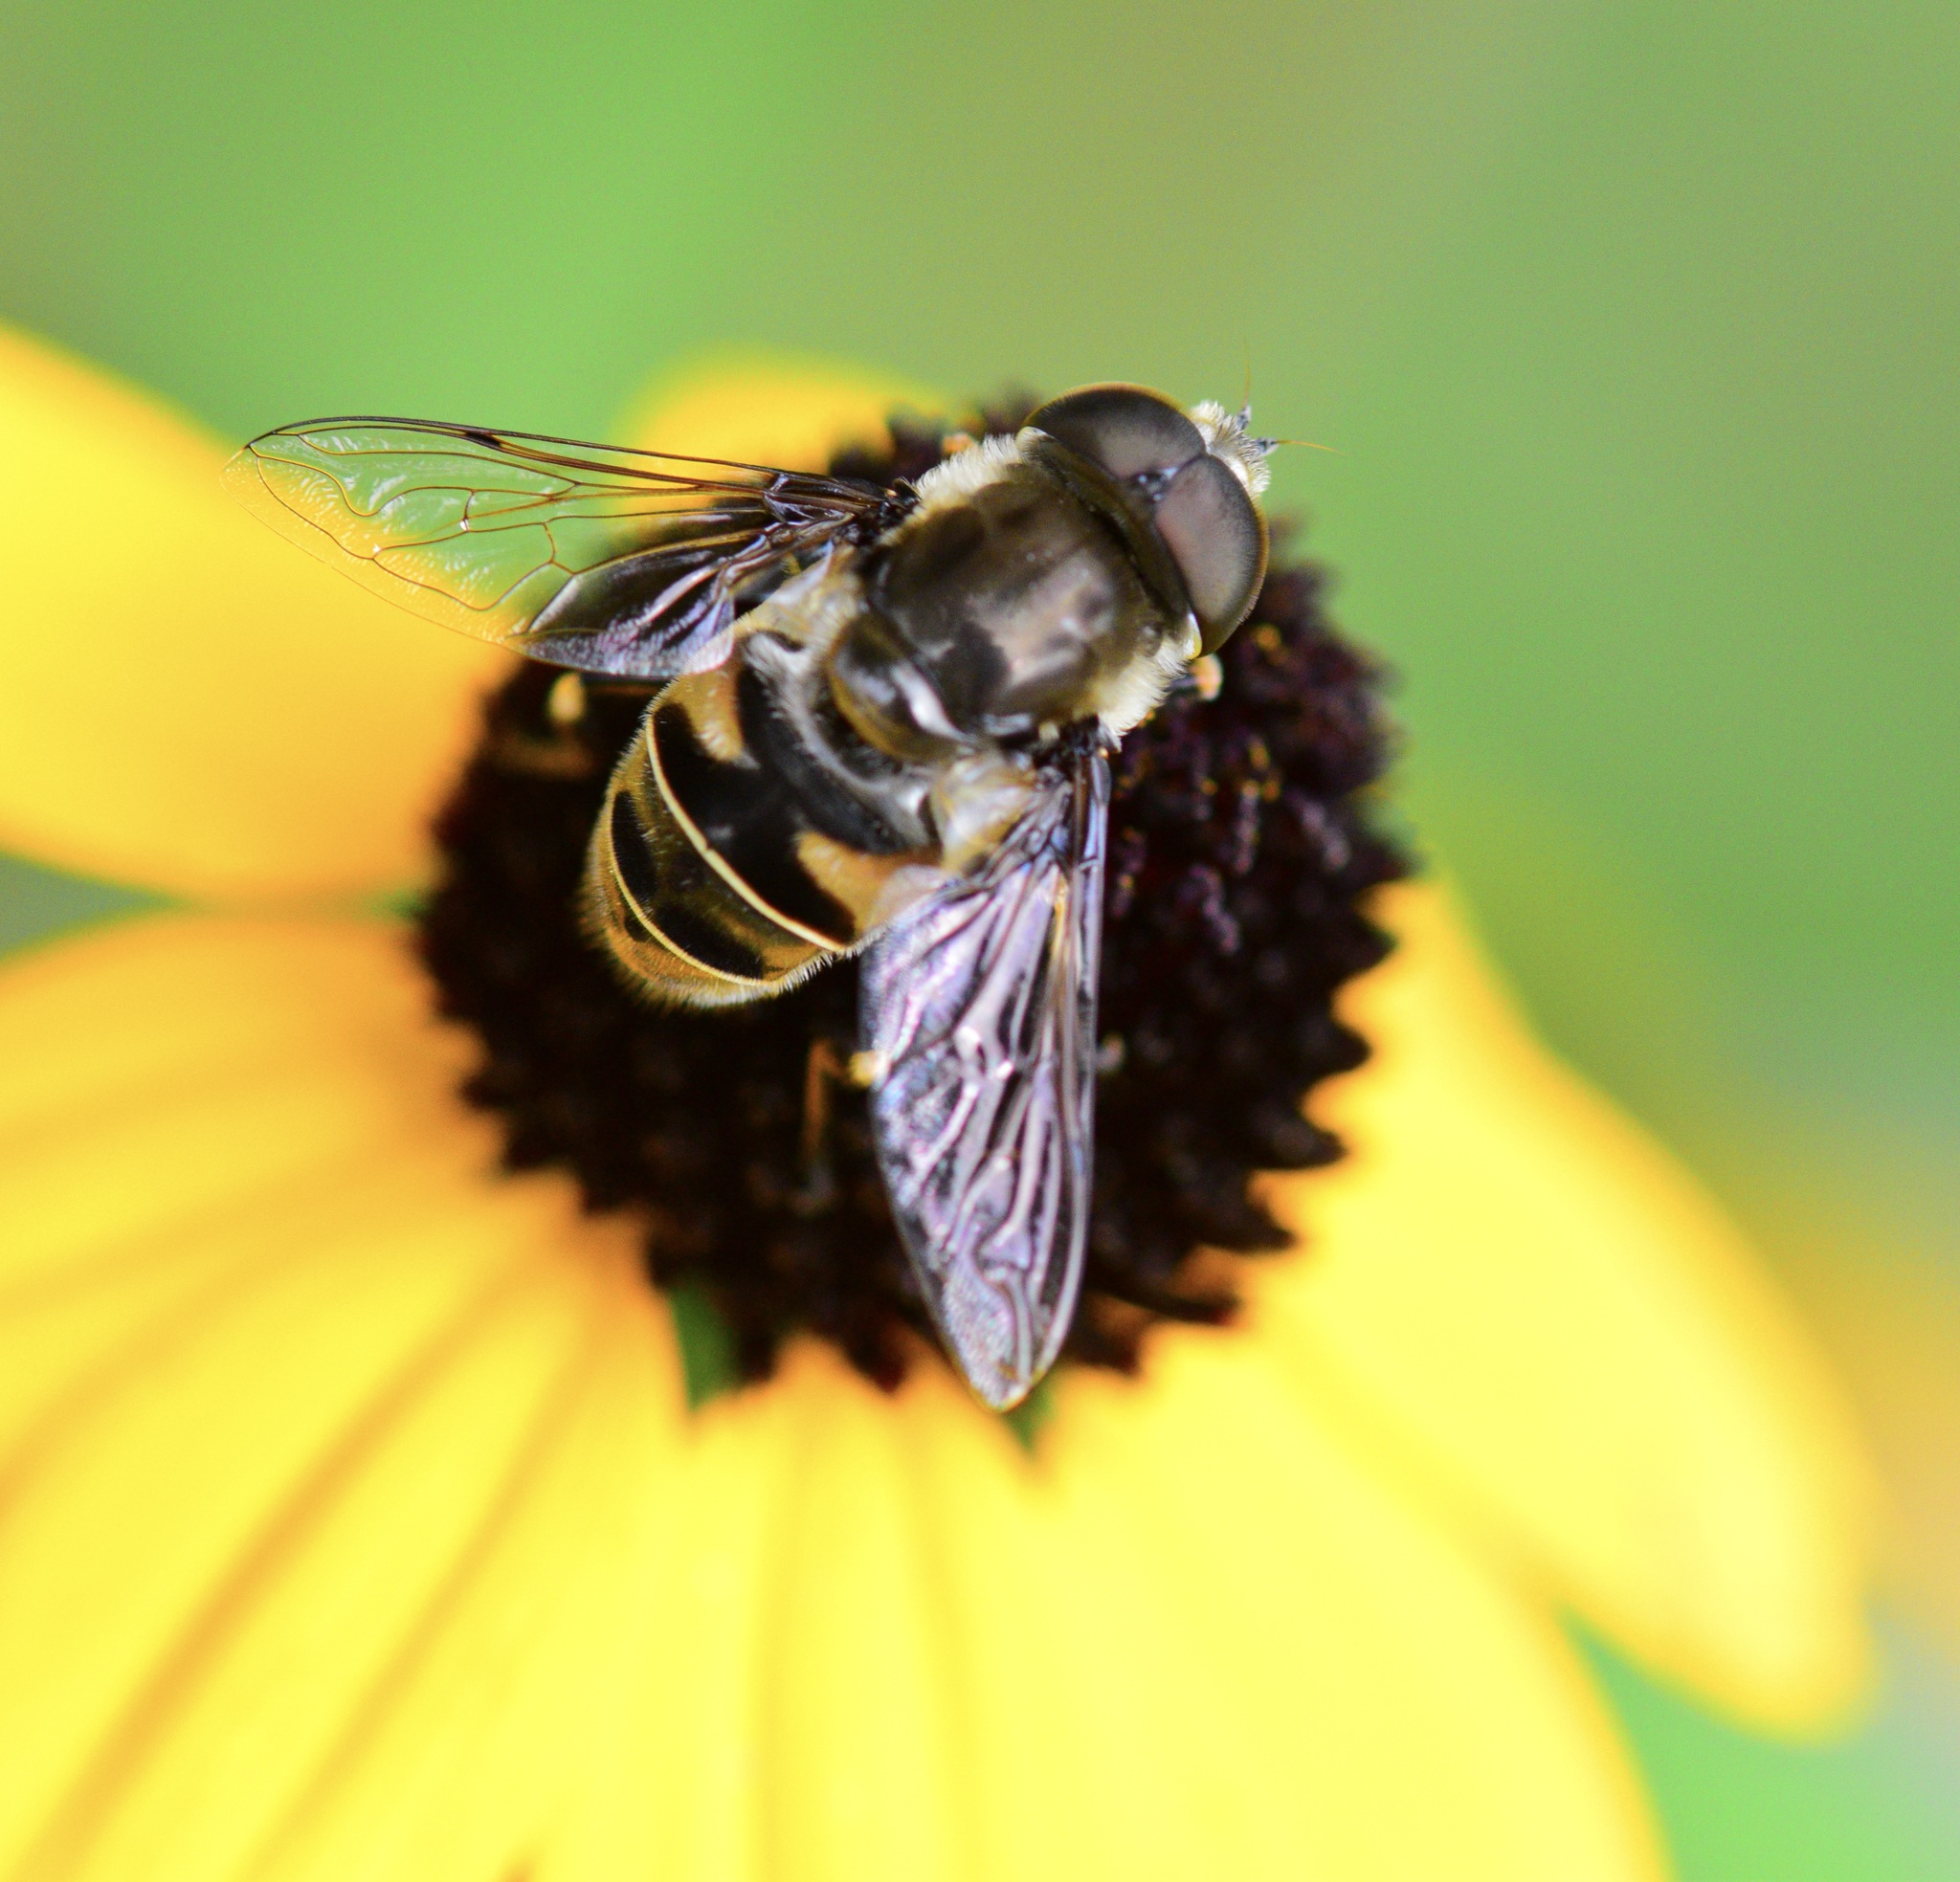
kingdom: Animalia
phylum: Arthropoda
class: Insecta
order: Diptera
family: Syrphidae
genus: Eristalis
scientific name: Eristalis dimidiata
